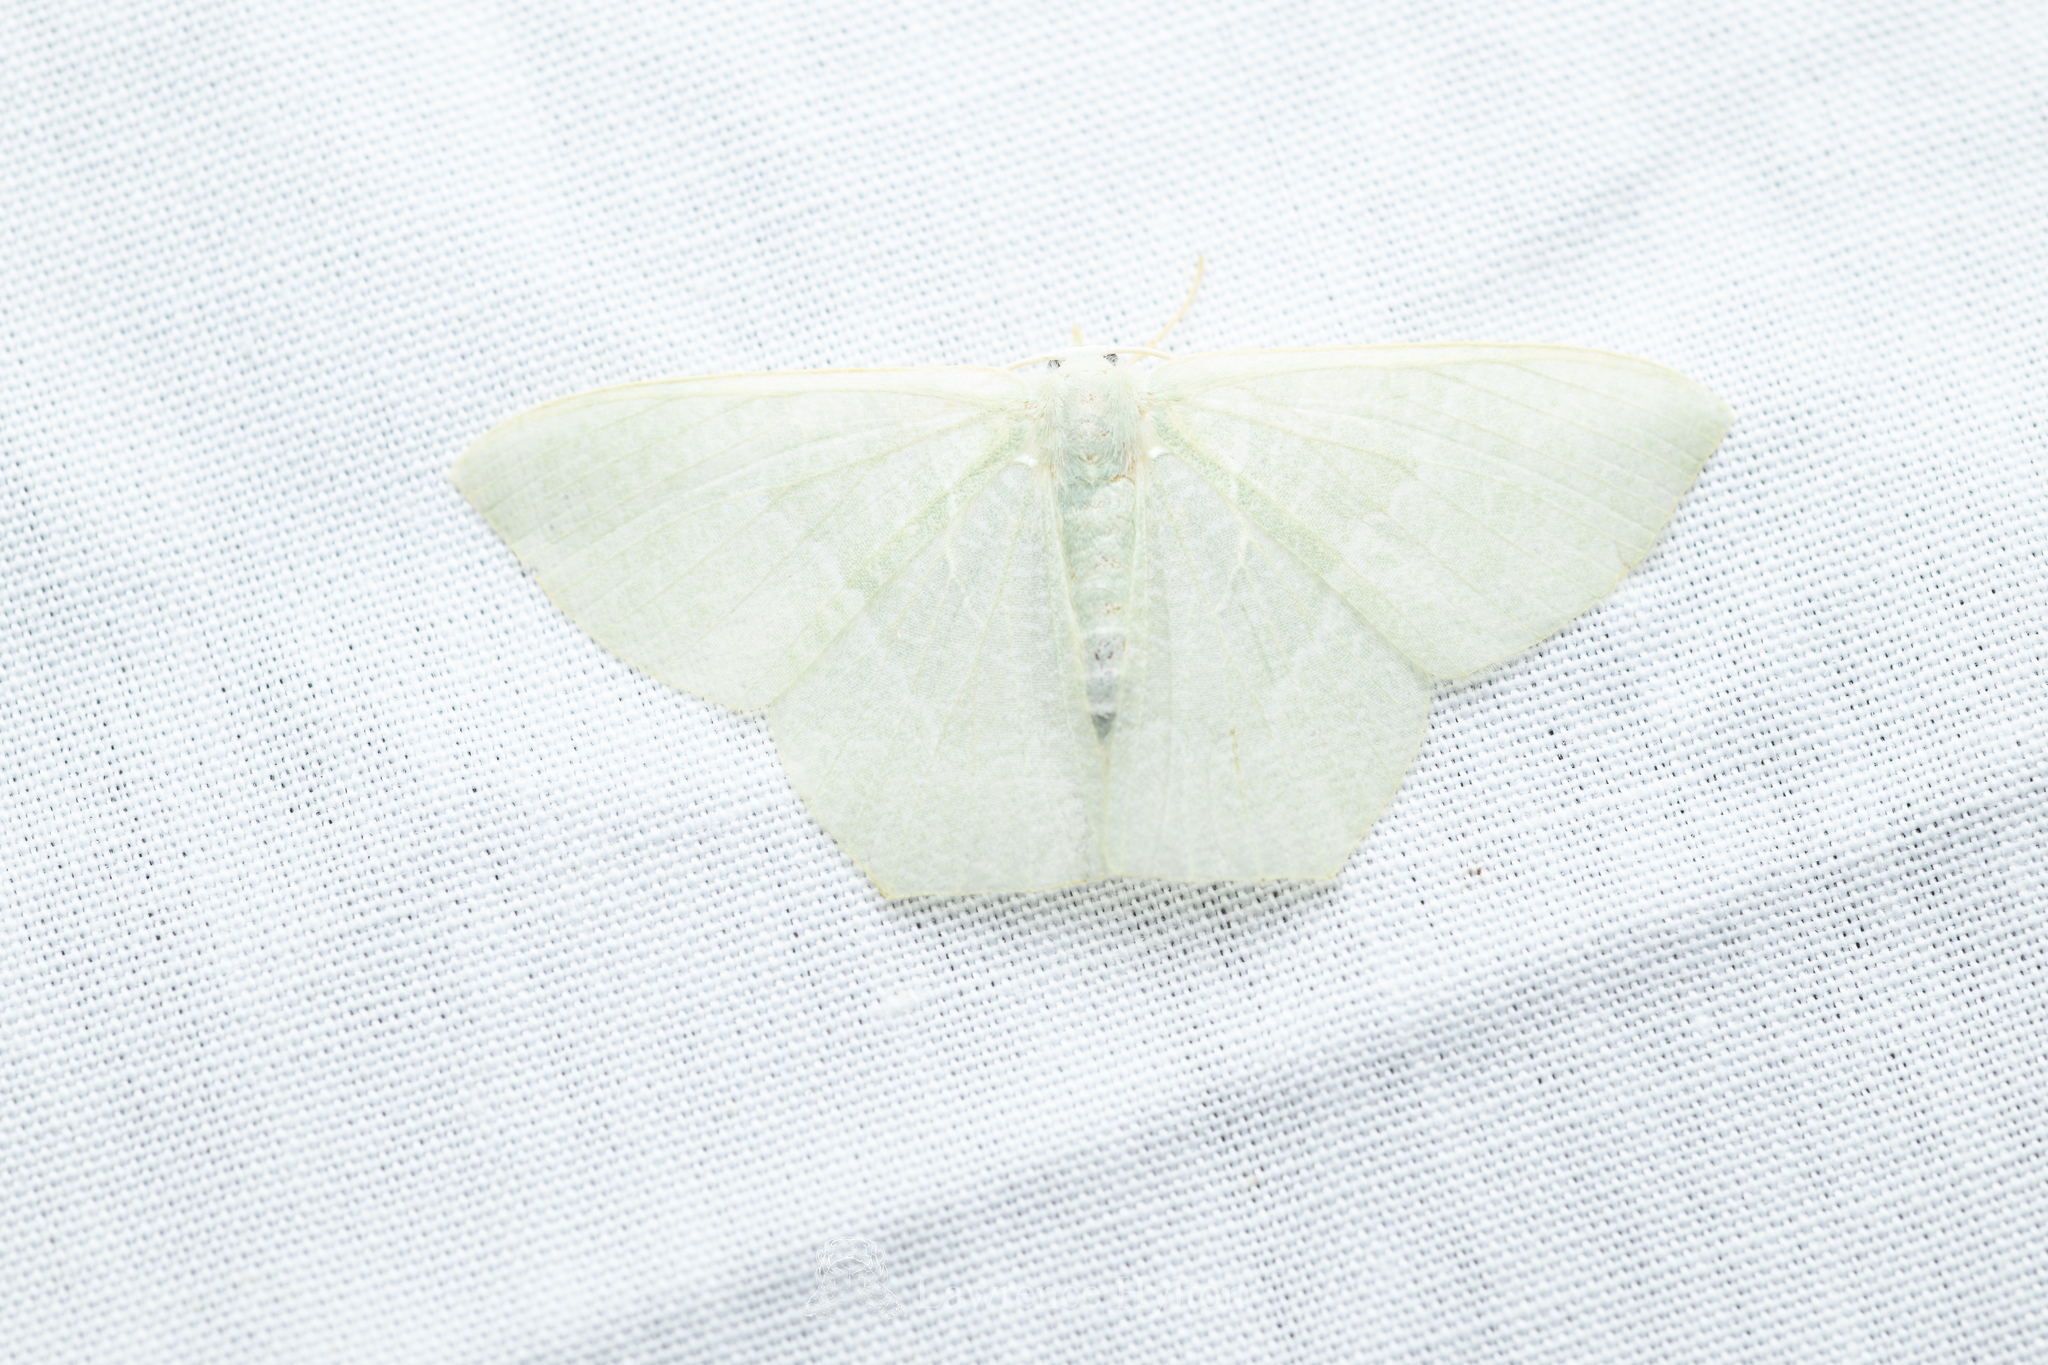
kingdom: Animalia
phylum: Arthropoda
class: Insecta
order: Lepidoptera
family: Geometridae
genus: Pelagodes
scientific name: Pelagodes antiquadraria
